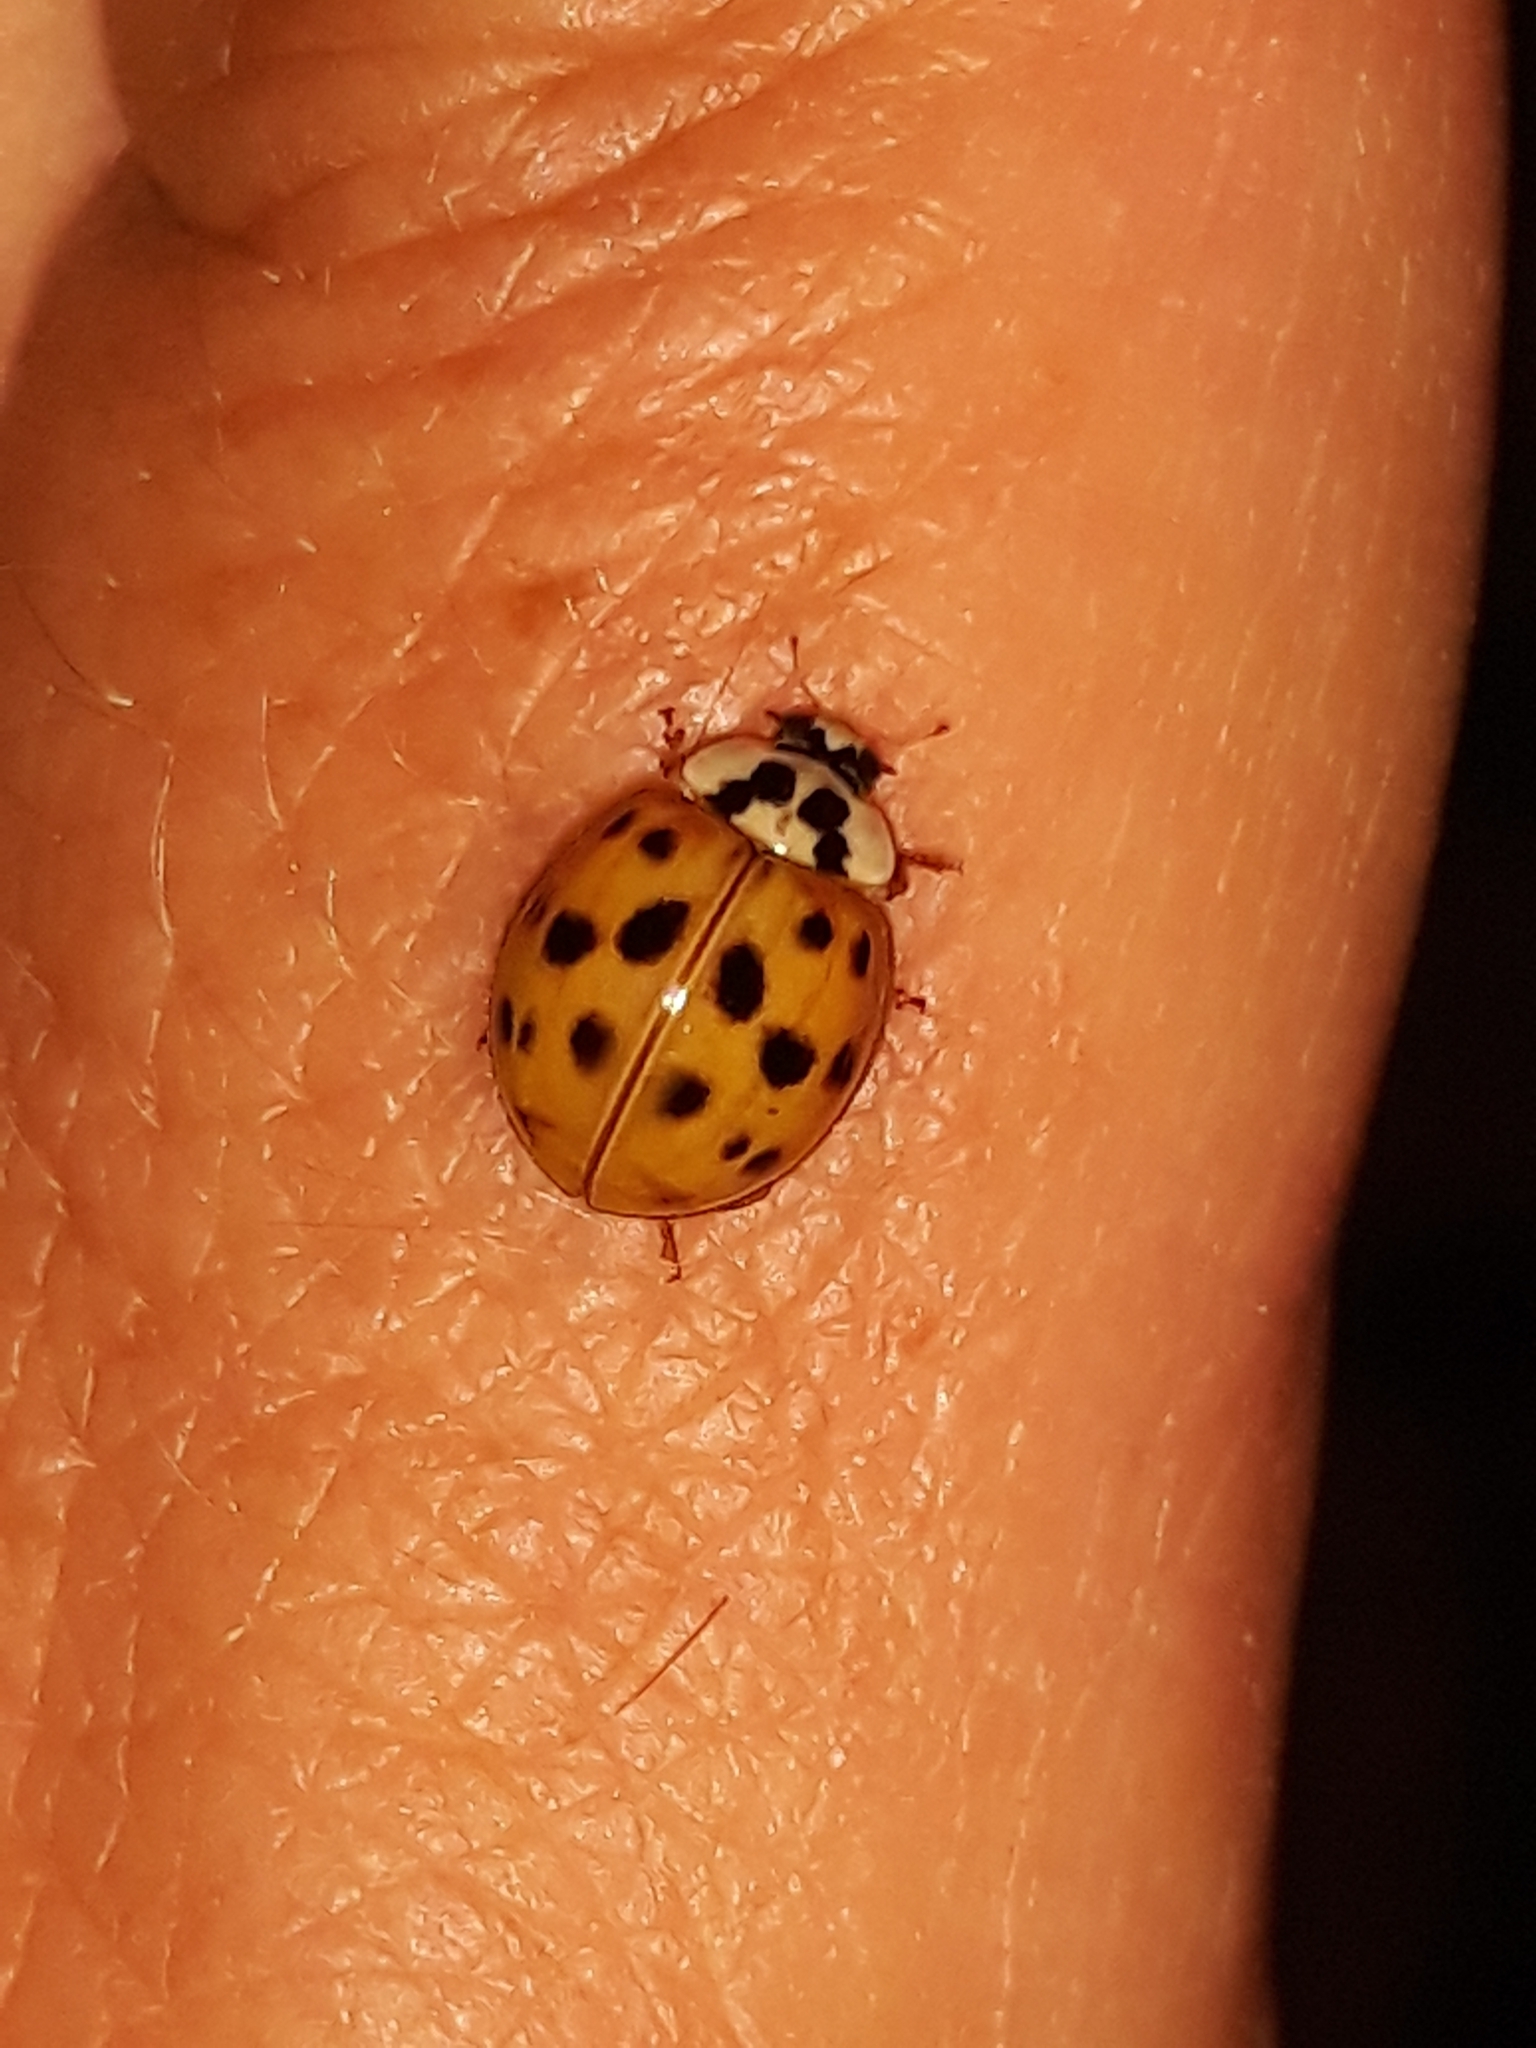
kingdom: Animalia
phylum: Arthropoda
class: Insecta
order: Coleoptera
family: Coccinellidae
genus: Harmonia
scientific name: Harmonia axyridis
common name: Harlequin ladybird
